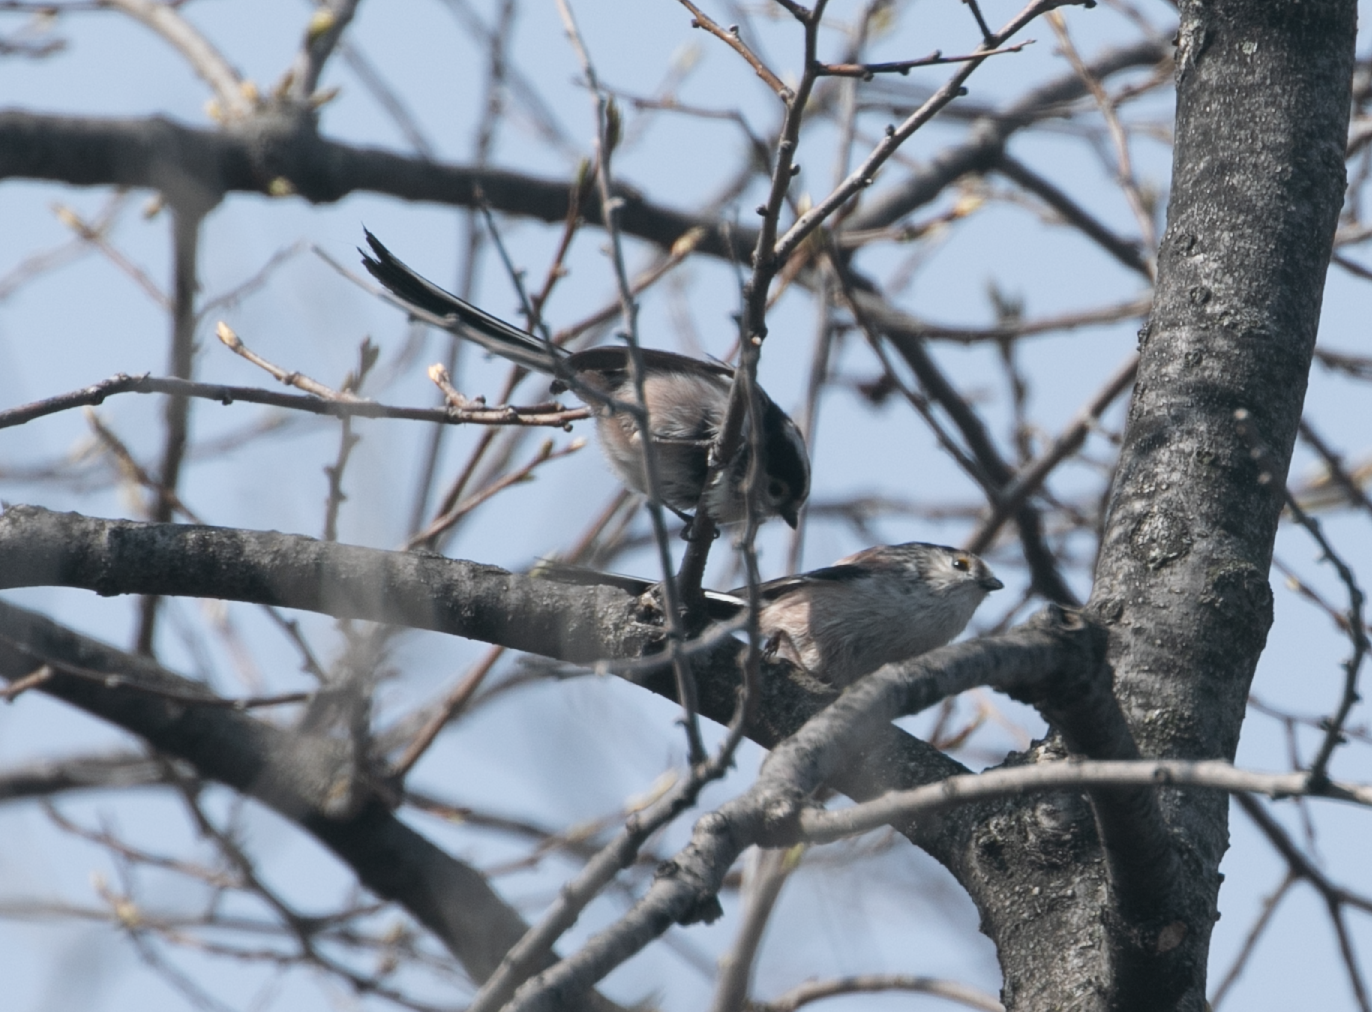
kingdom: Animalia
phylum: Chordata
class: Aves
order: Passeriformes
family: Aegithalidae
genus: Aegithalos
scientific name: Aegithalos caudatus
